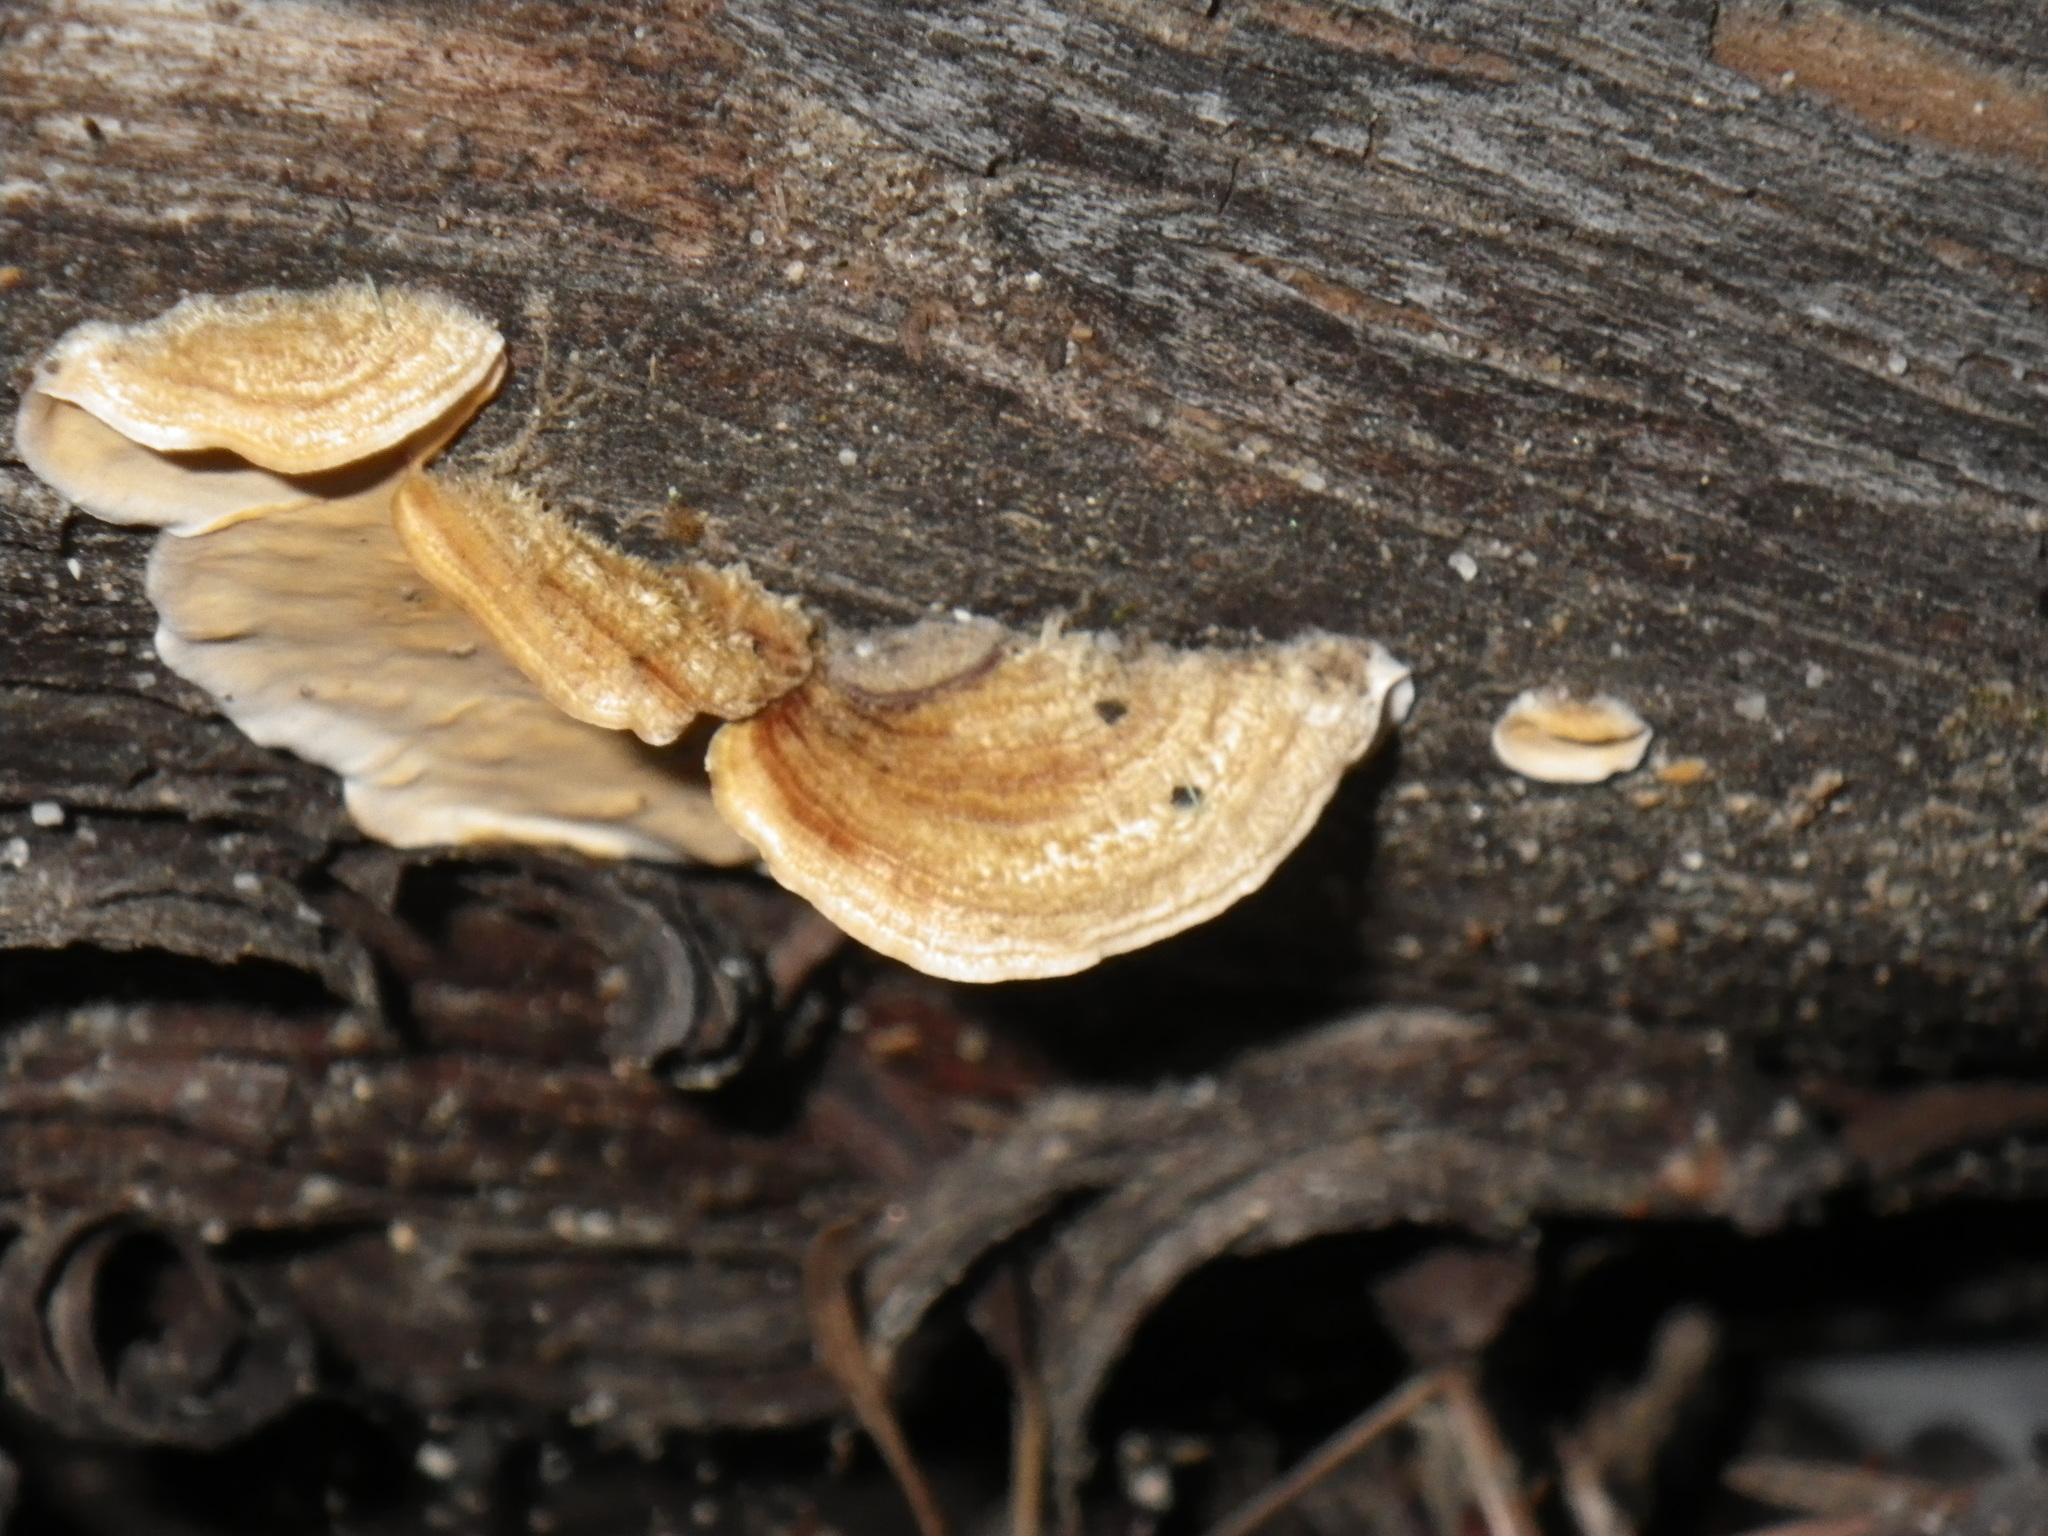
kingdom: Fungi
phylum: Basidiomycota
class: Agaricomycetes
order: Russulales
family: Stereaceae
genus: Stereum
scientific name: Stereum hirsutum
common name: Hairy curtain crust
